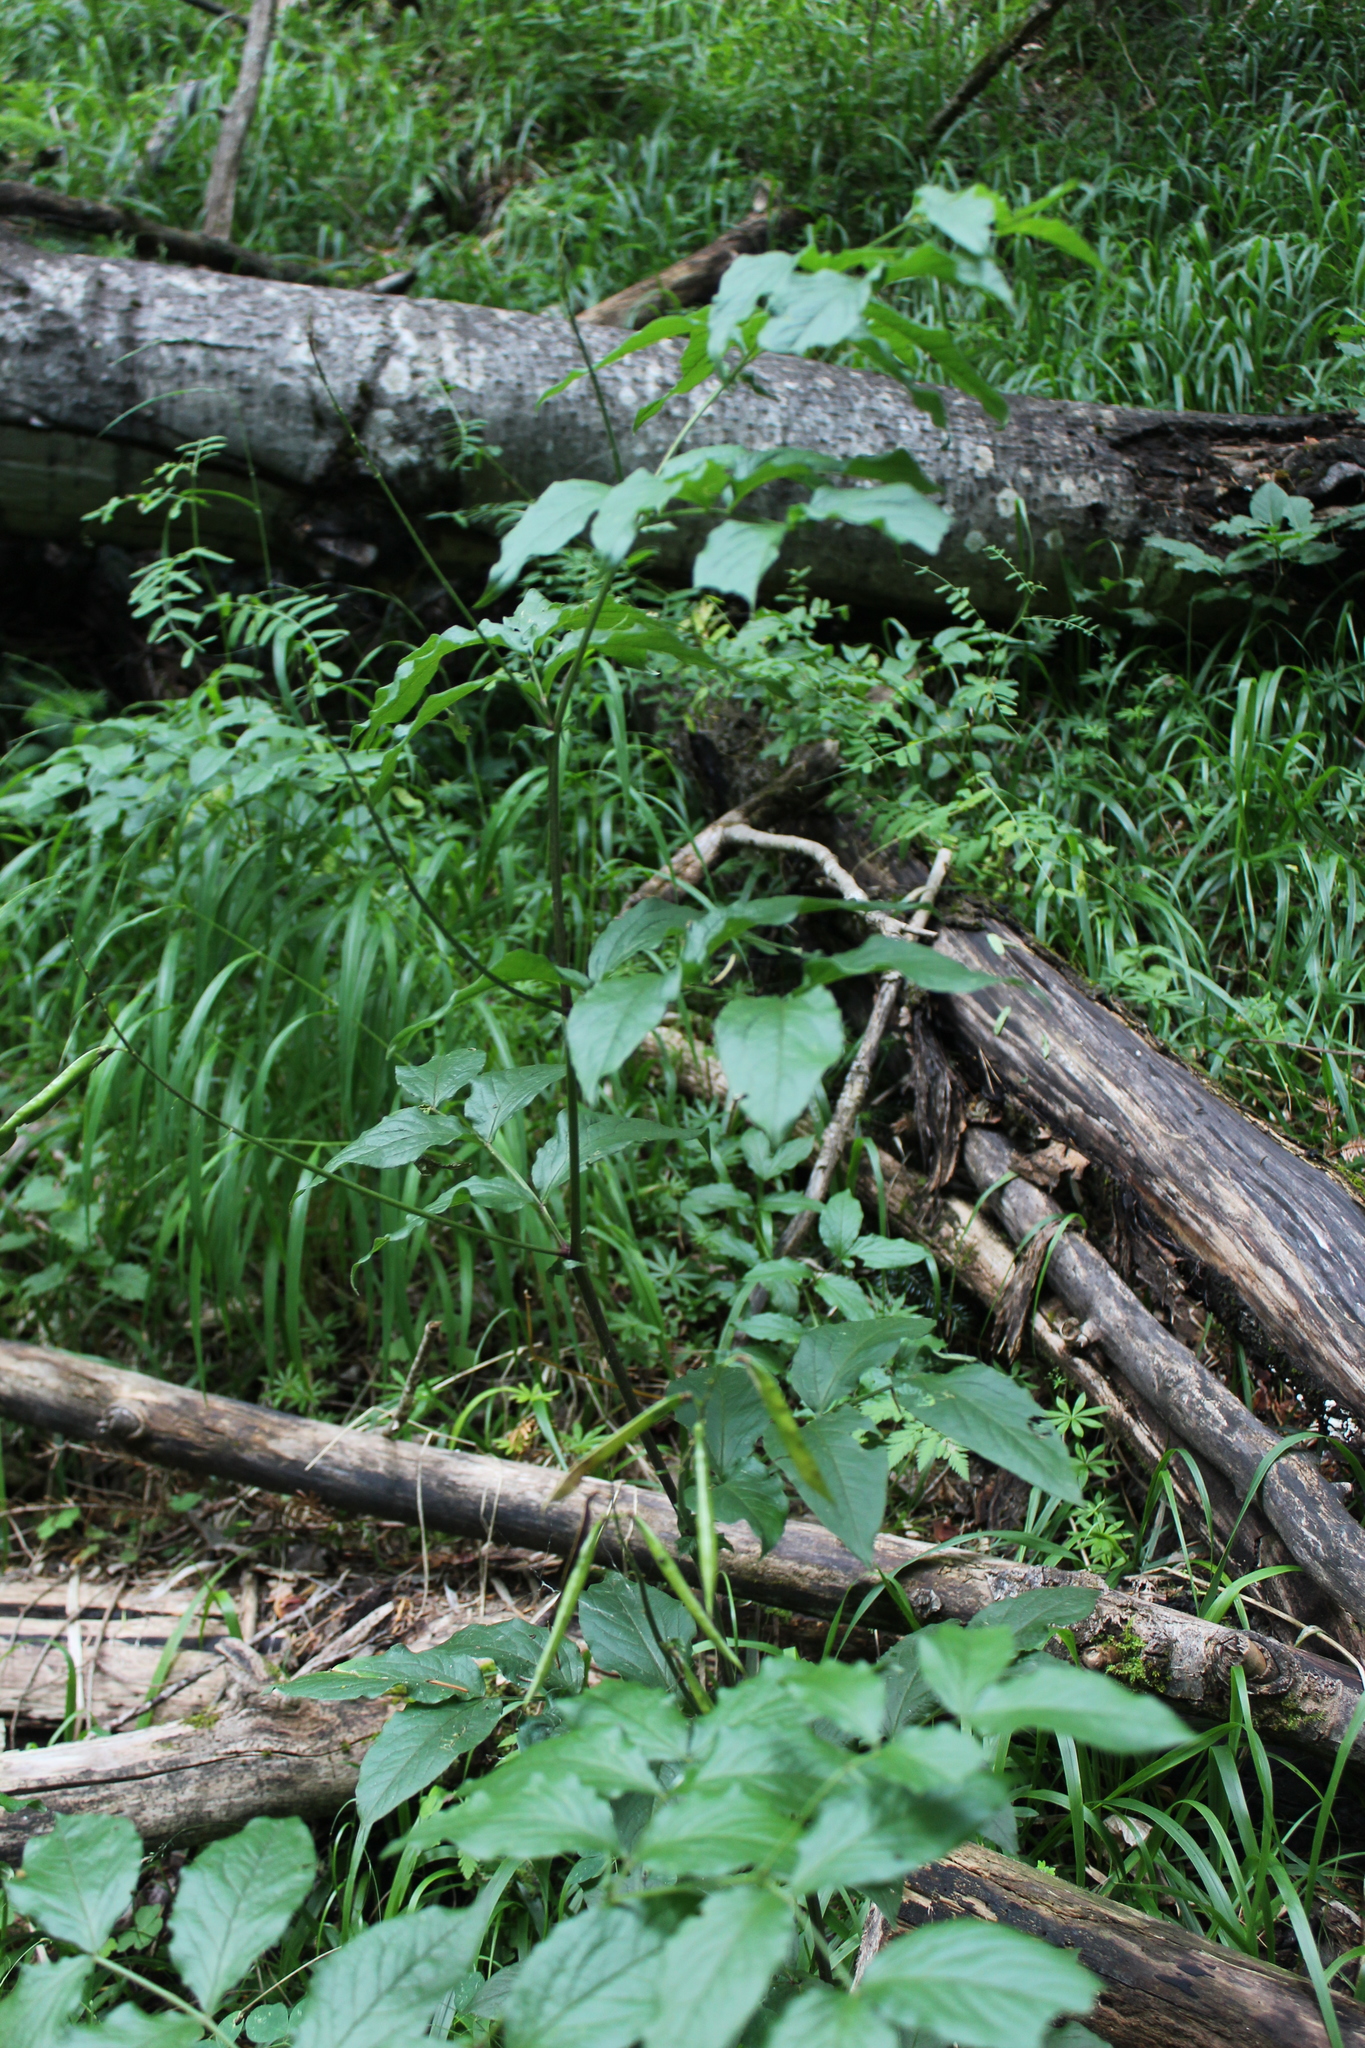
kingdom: Plantae
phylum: Tracheophyta
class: Magnoliopsida
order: Fabales
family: Fabaceae
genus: Lathyrus
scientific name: Lathyrus aureus
